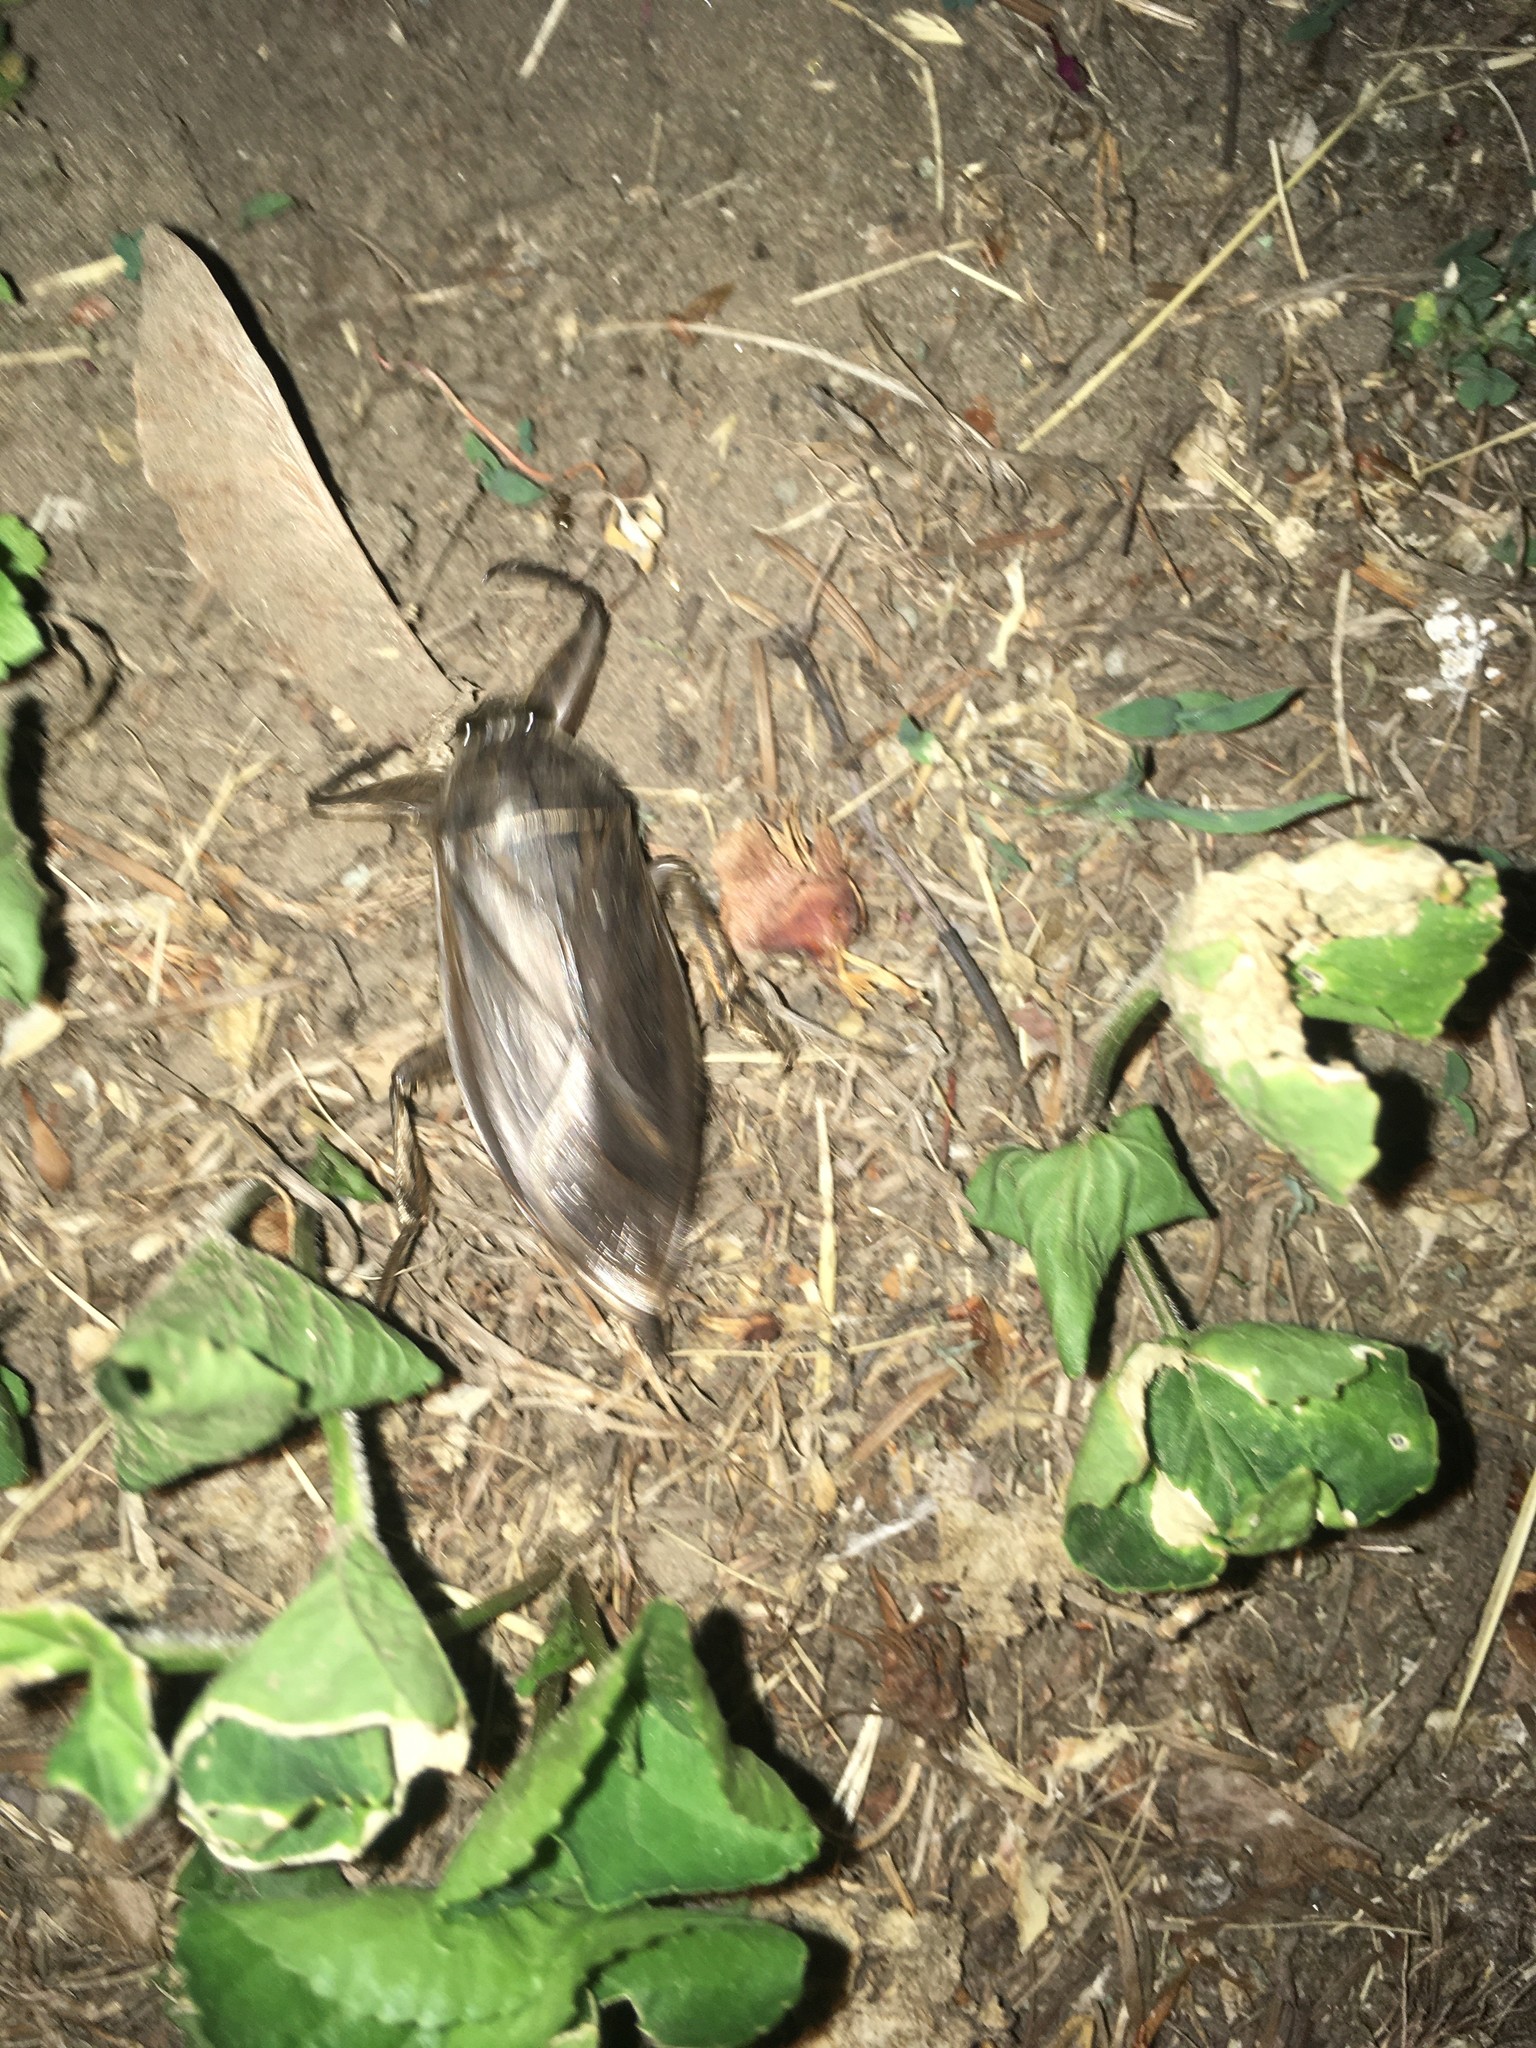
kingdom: Animalia
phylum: Arthropoda
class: Insecta
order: Hemiptera
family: Belostomatidae
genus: Lethocerus
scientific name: Lethocerus
